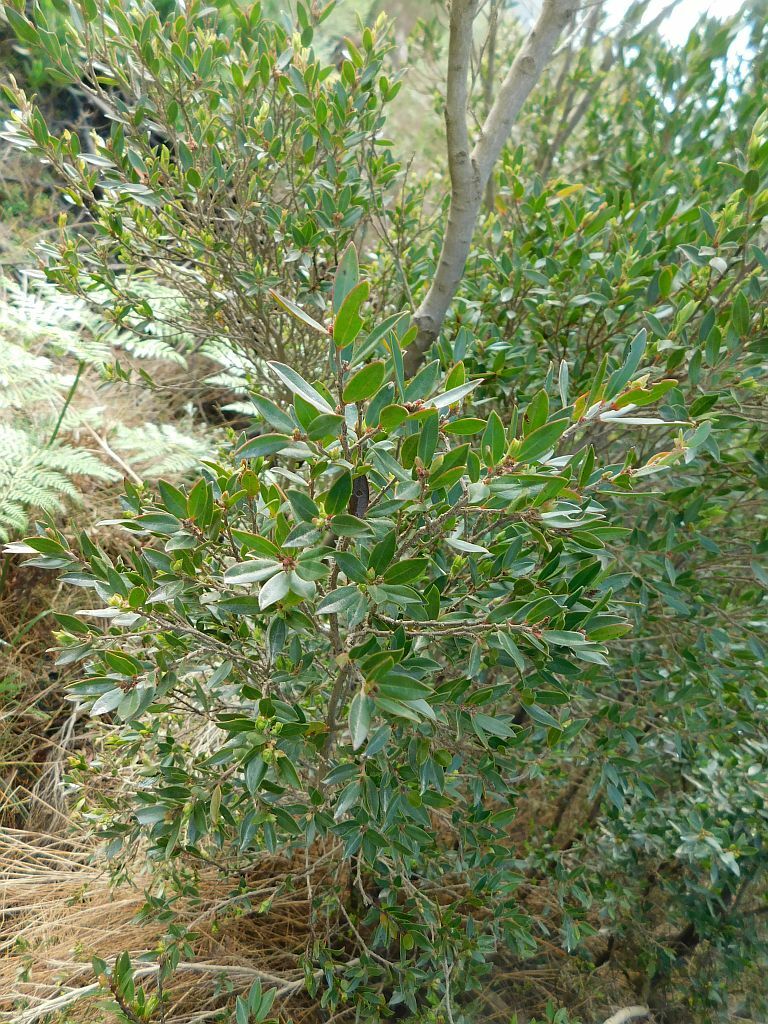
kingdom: Plantae
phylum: Tracheophyta
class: Magnoliopsida
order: Ericales
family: Ebenaceae
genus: Diospyros
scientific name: Diospyros glabra
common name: Fynbos star apple
